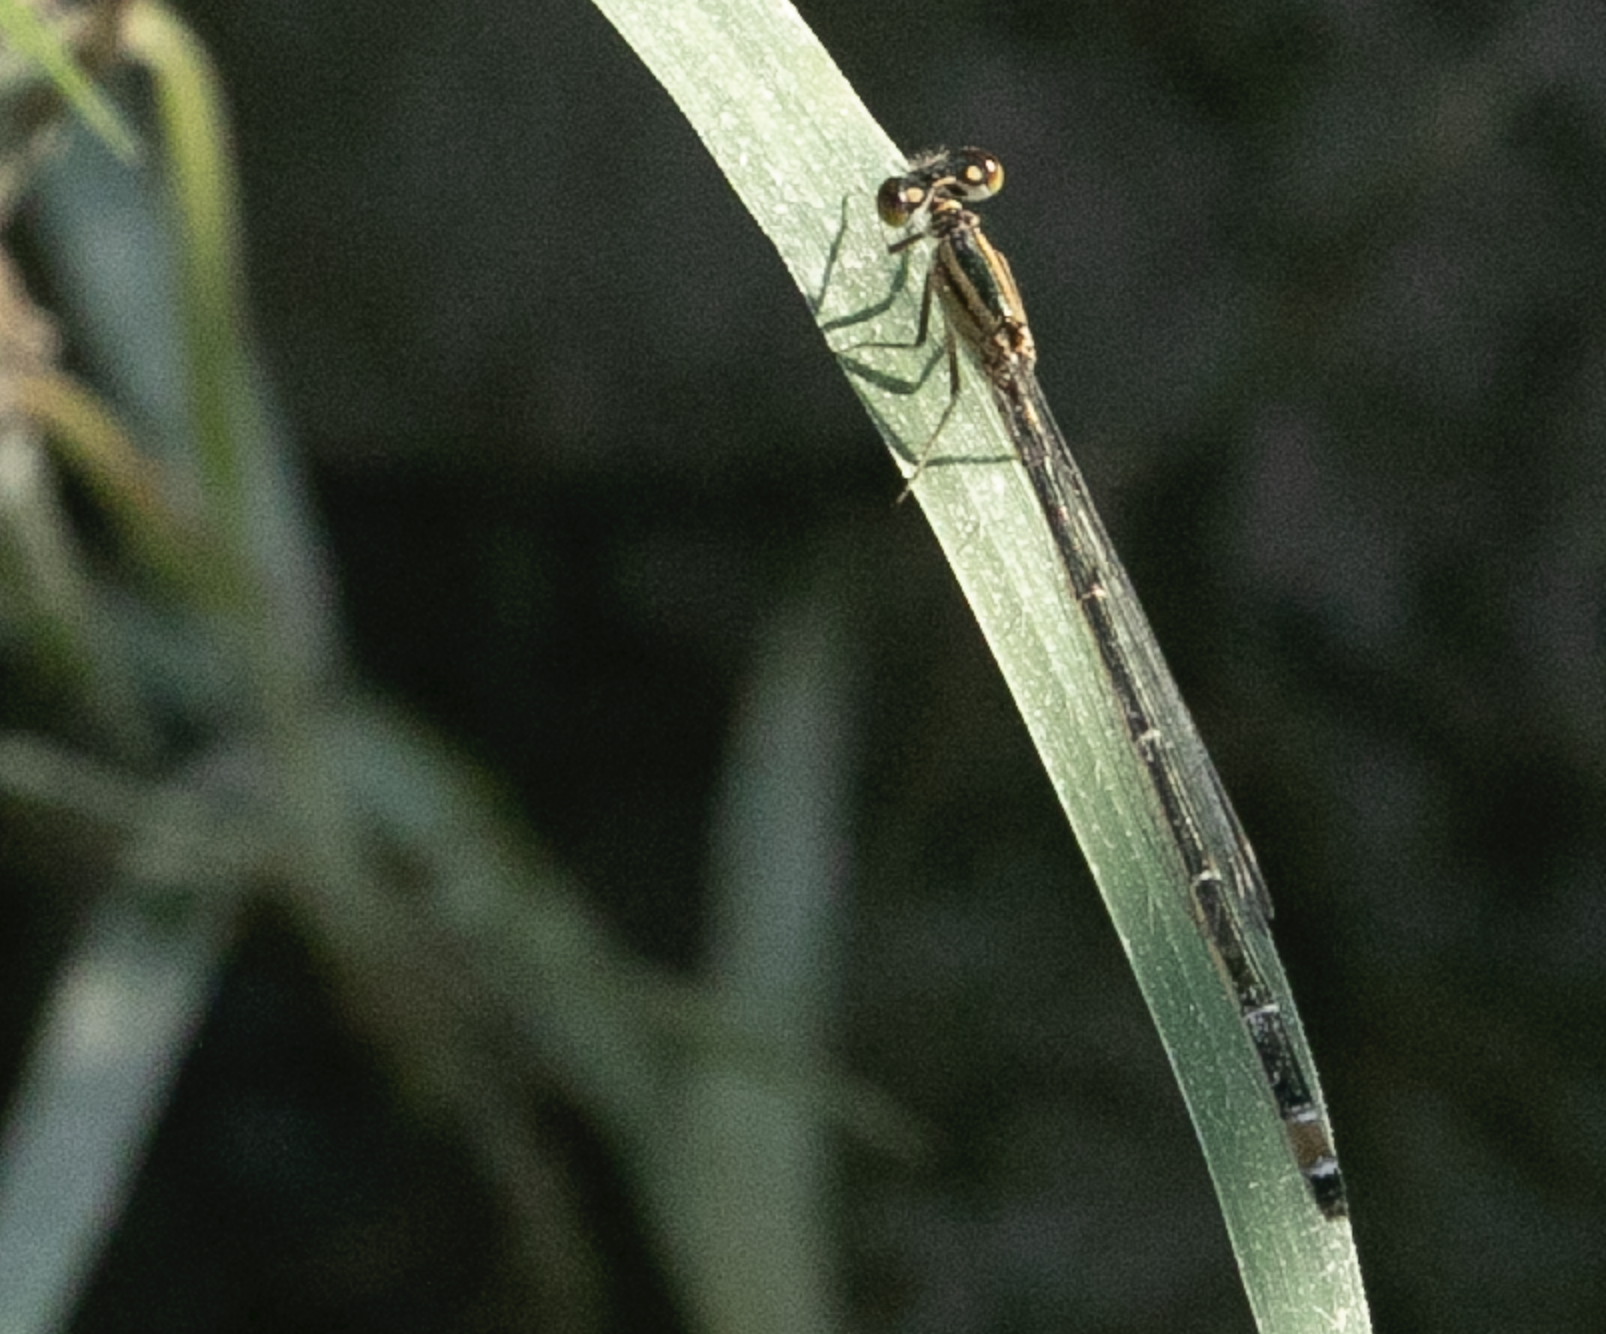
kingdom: Animalia
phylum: Arthropoda
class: Insecta
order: Odonata
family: Coenagrionidae
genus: Ischnura
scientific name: Ischnura elegans
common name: Blue-tailed damselfly
